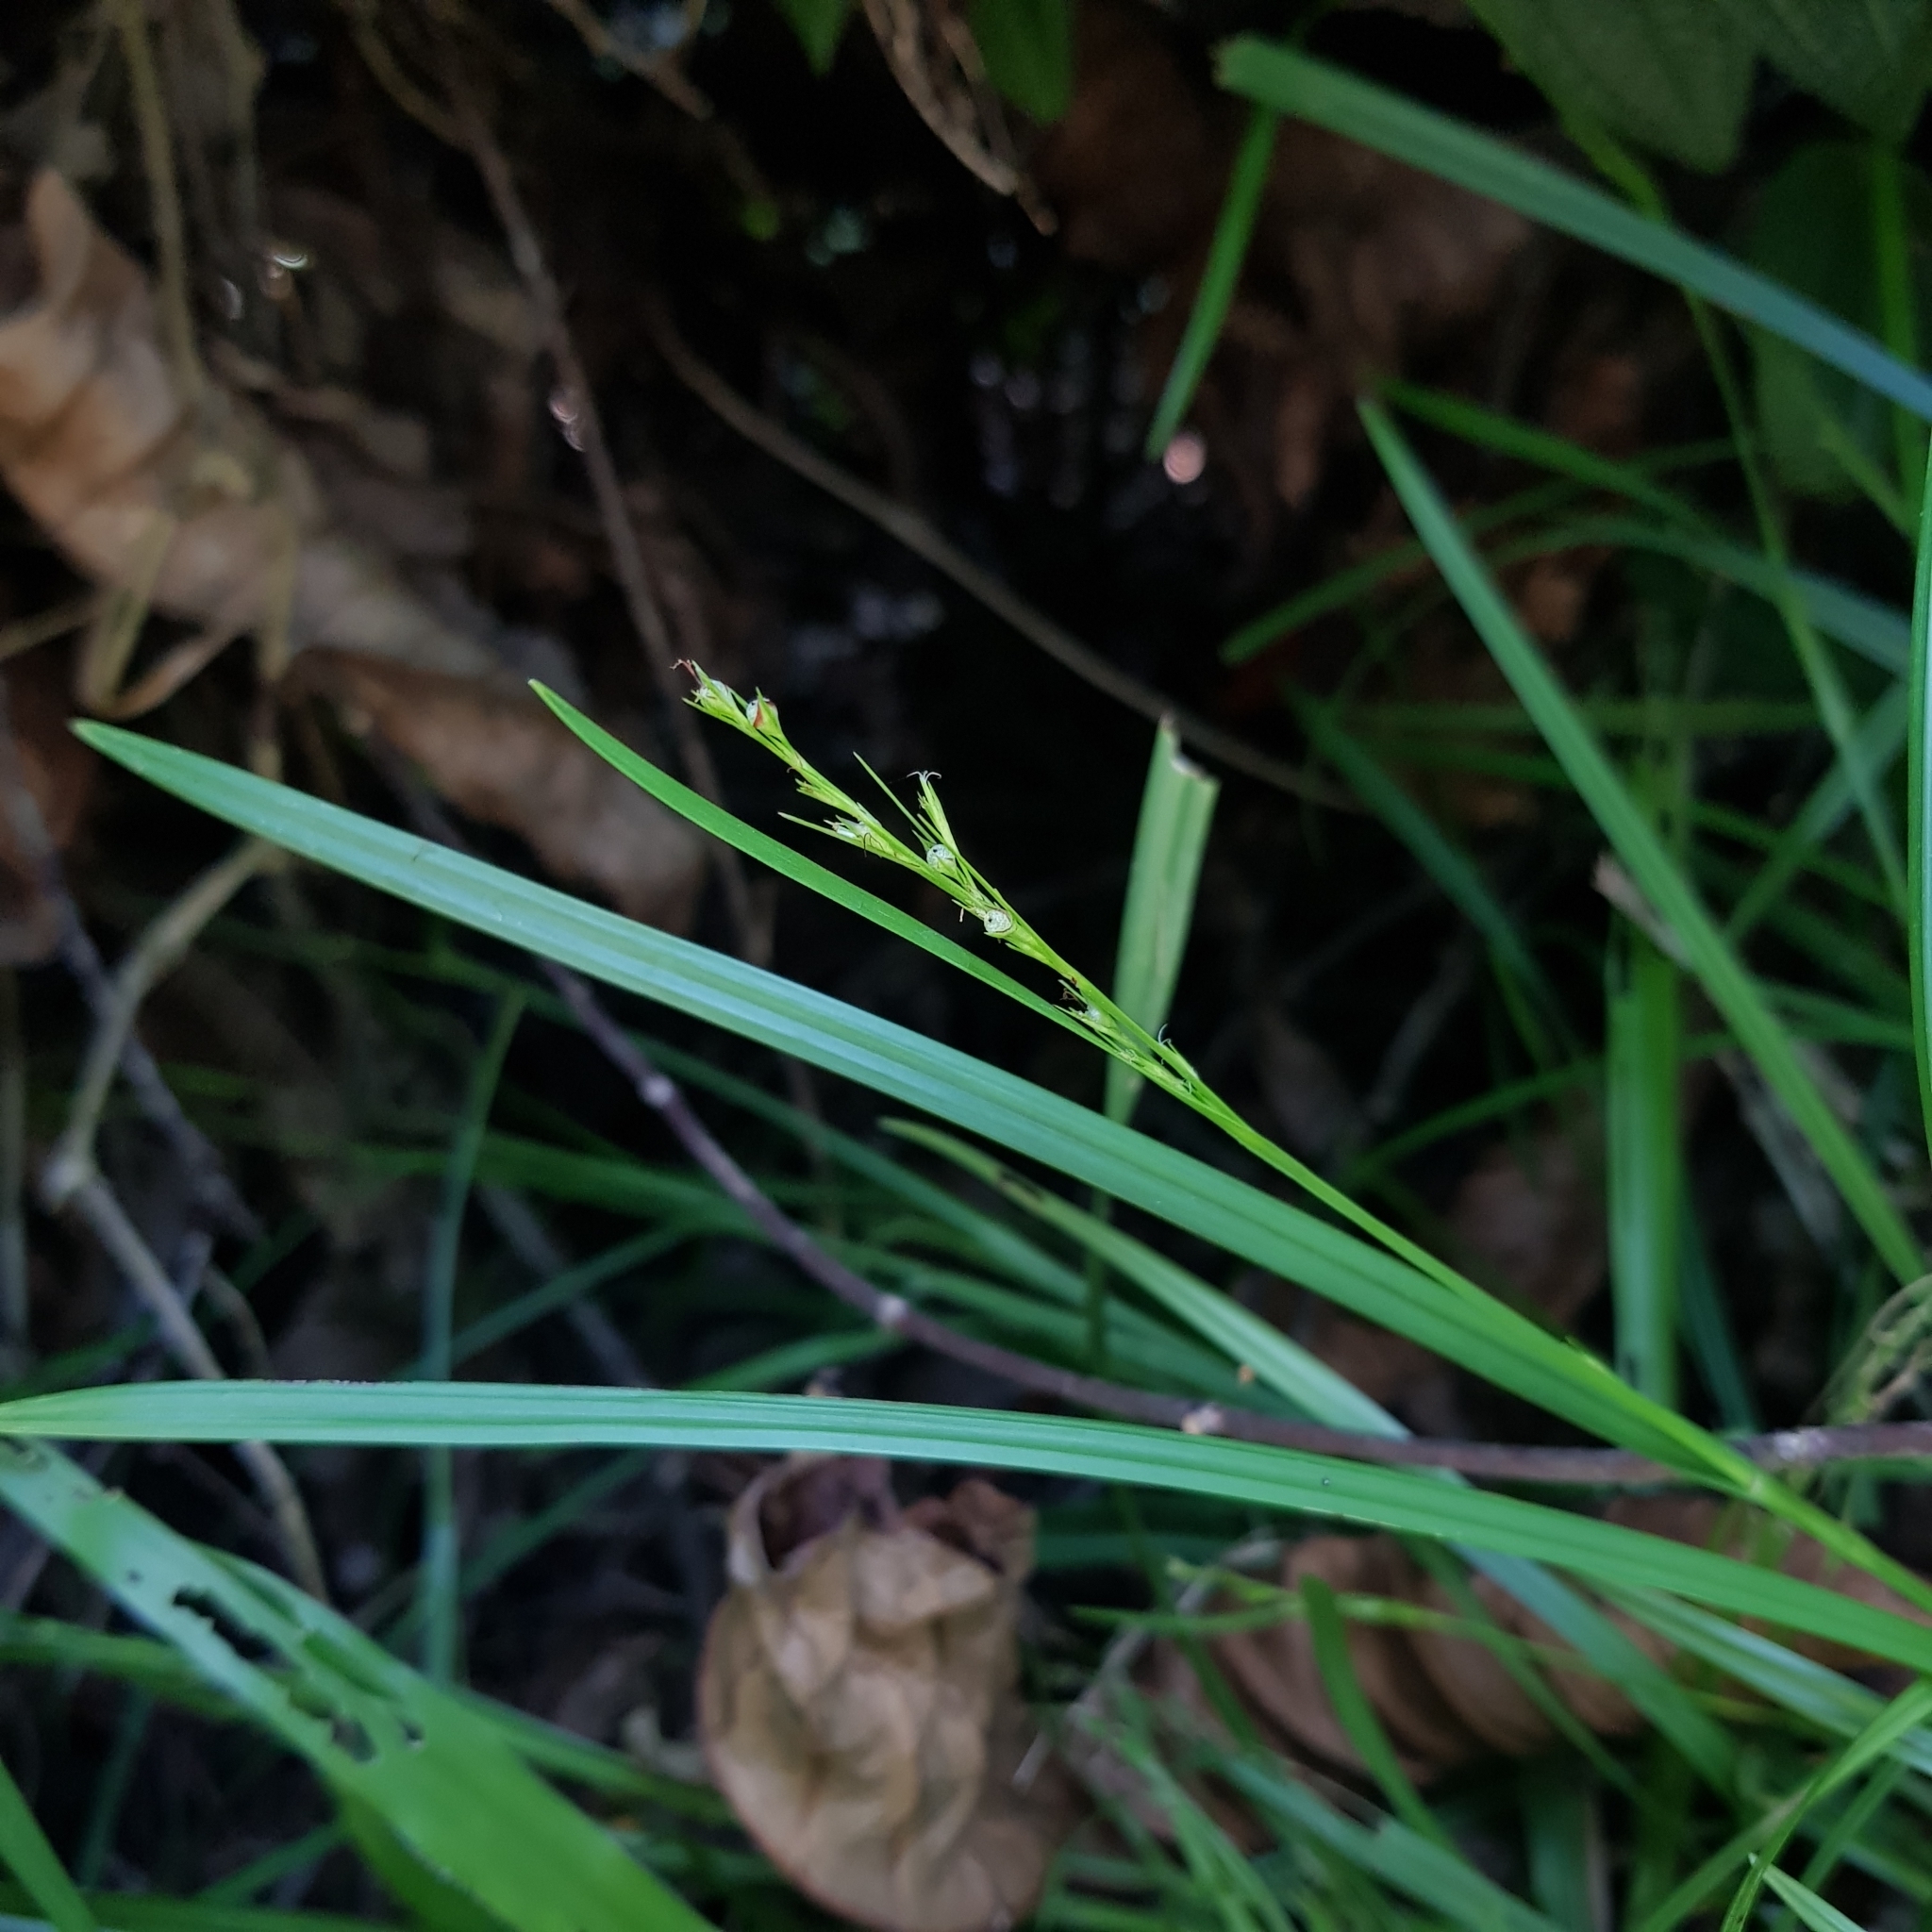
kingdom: Plantae
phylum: Tracheophyta
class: Liliopsida
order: Poales
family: Cyperaceae
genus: Scleria
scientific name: Scleria levis
